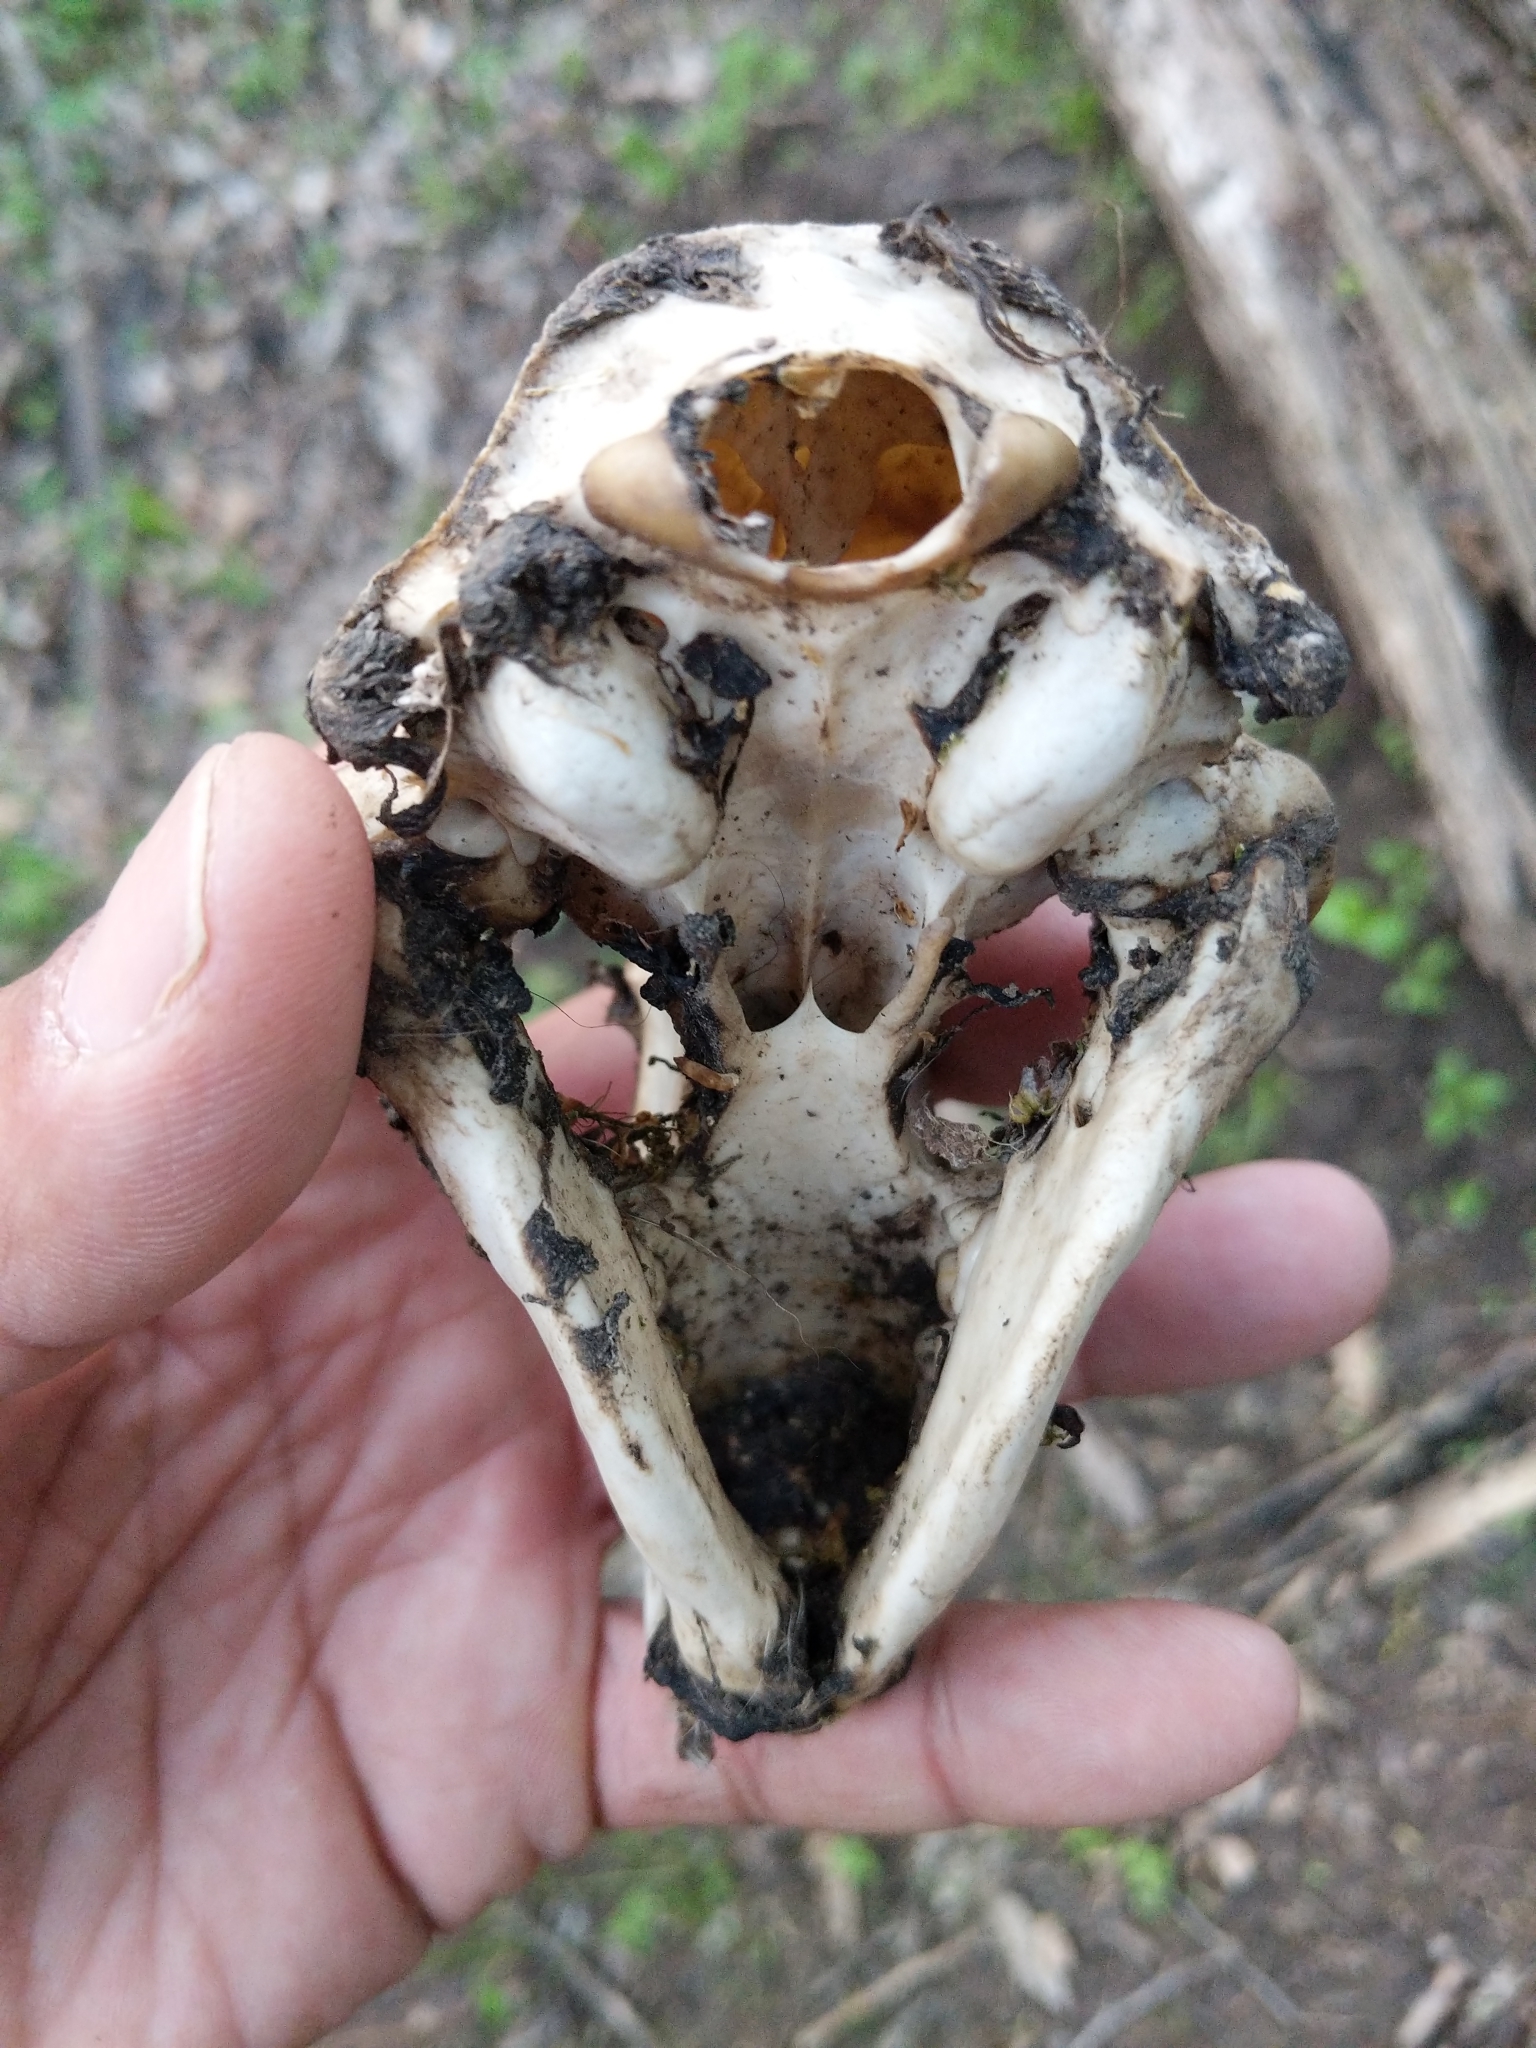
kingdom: Animalia
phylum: Chordata
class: Mammalia
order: Carnivora
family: Procyonidae
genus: Procyon
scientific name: Procyon lotor
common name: Raccoon
